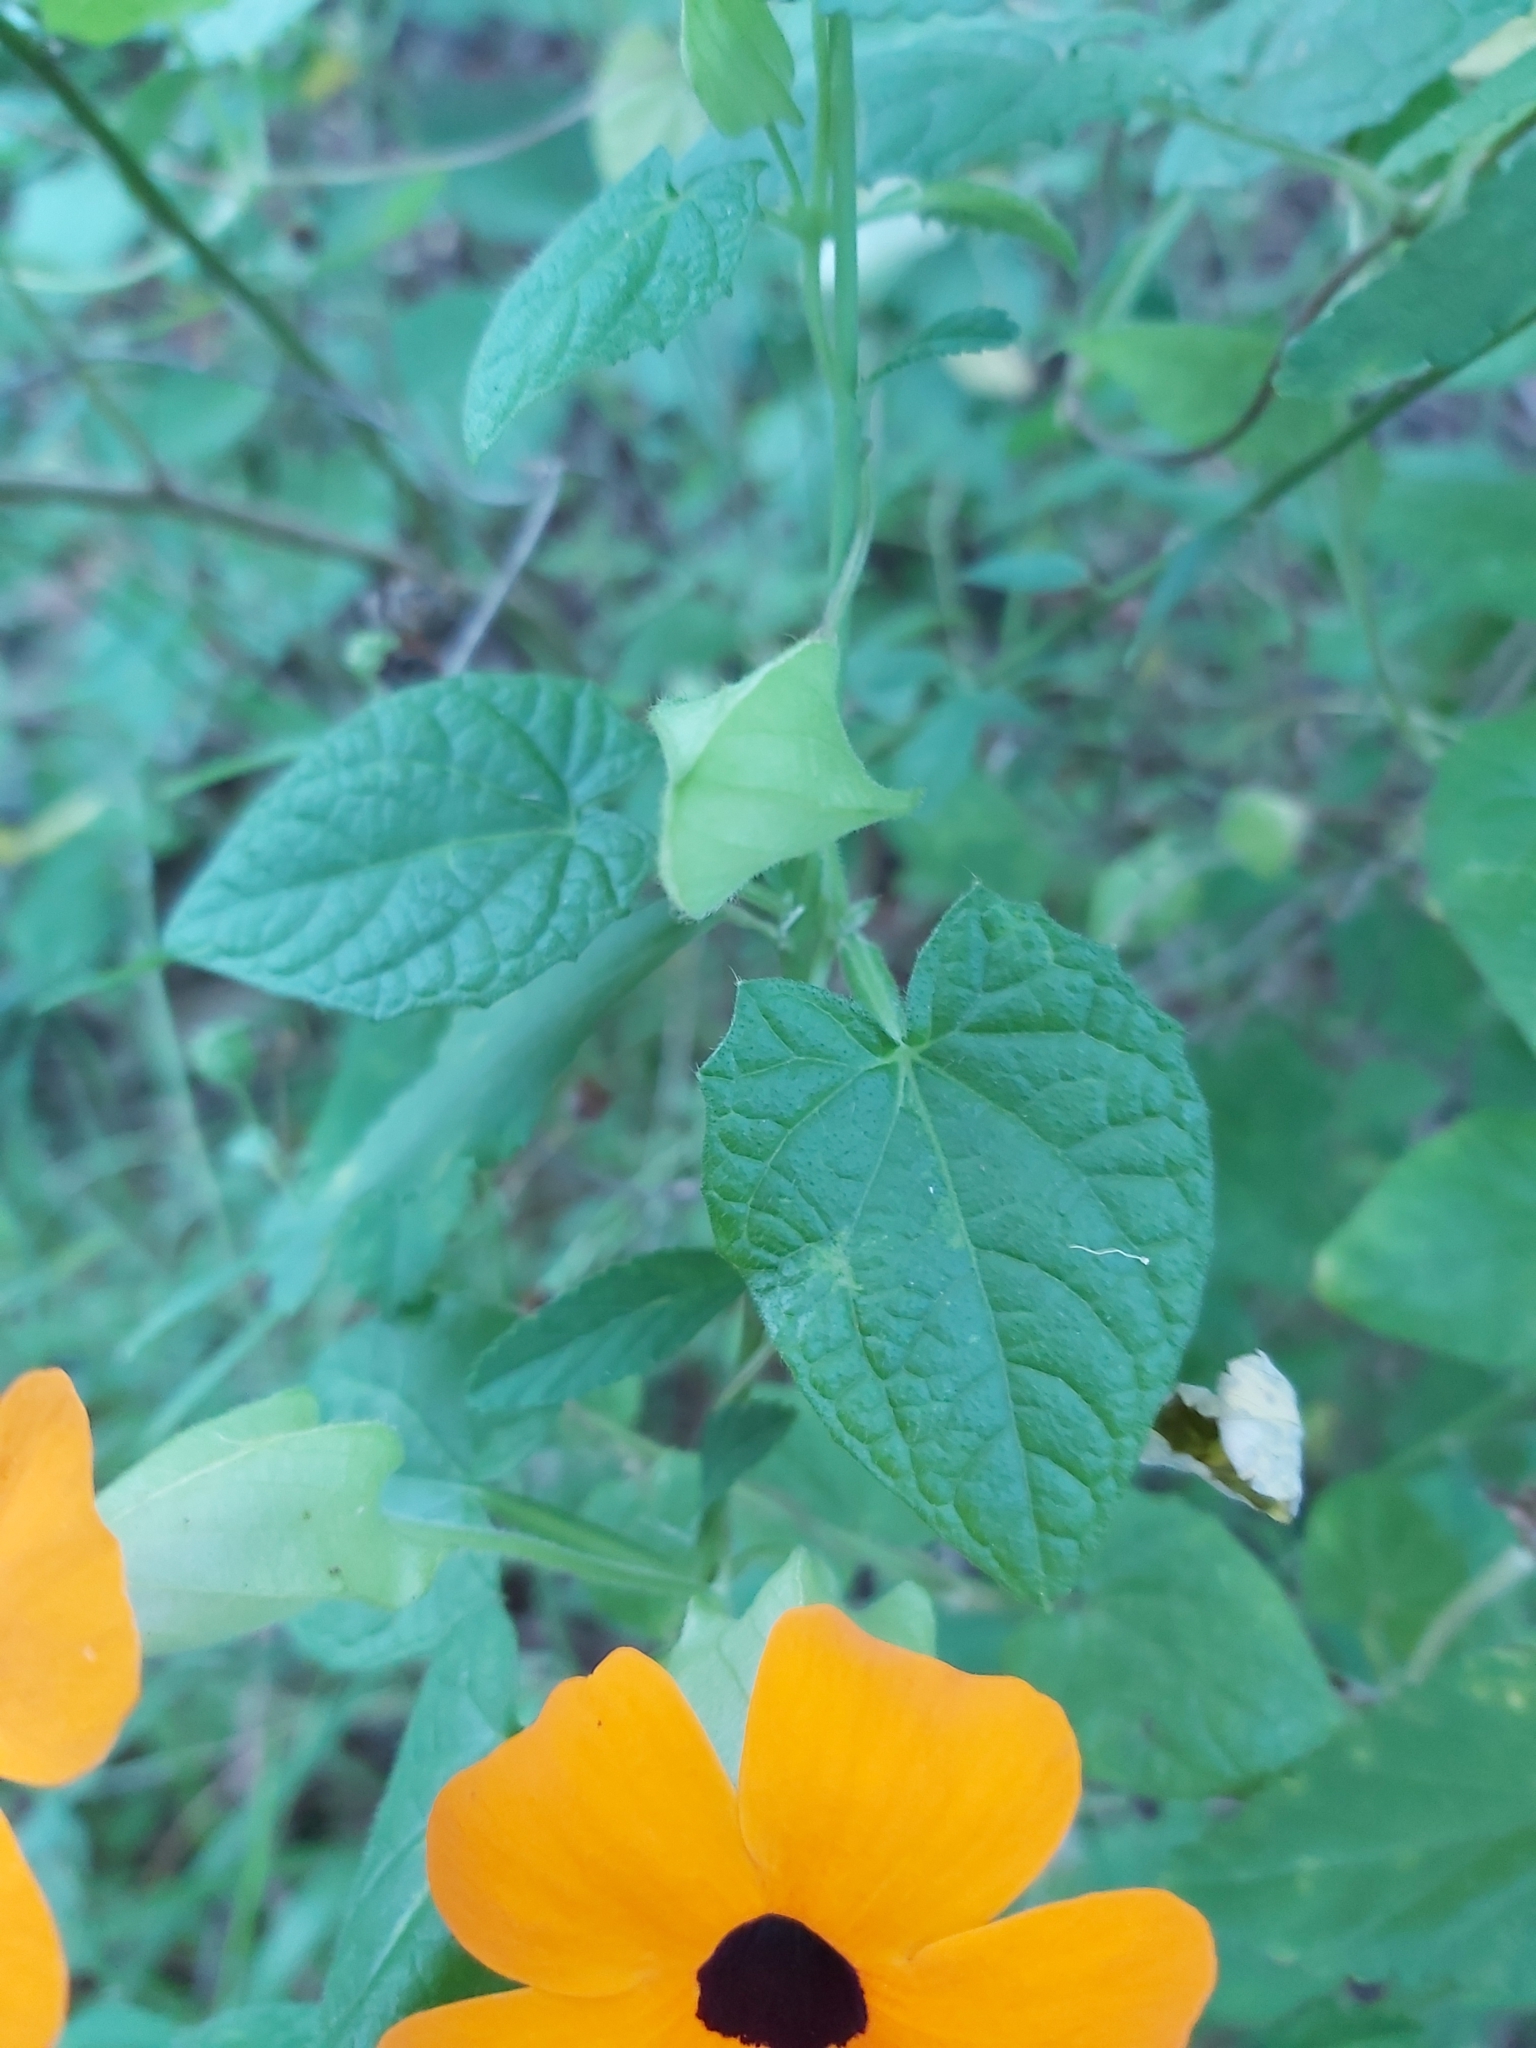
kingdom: Plantae
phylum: Tracheophyta
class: Magnoliopsida
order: Lamiales
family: Acanthaceae
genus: Thunbergia
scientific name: Thunbergia alata
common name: Blackeyed susan vine
